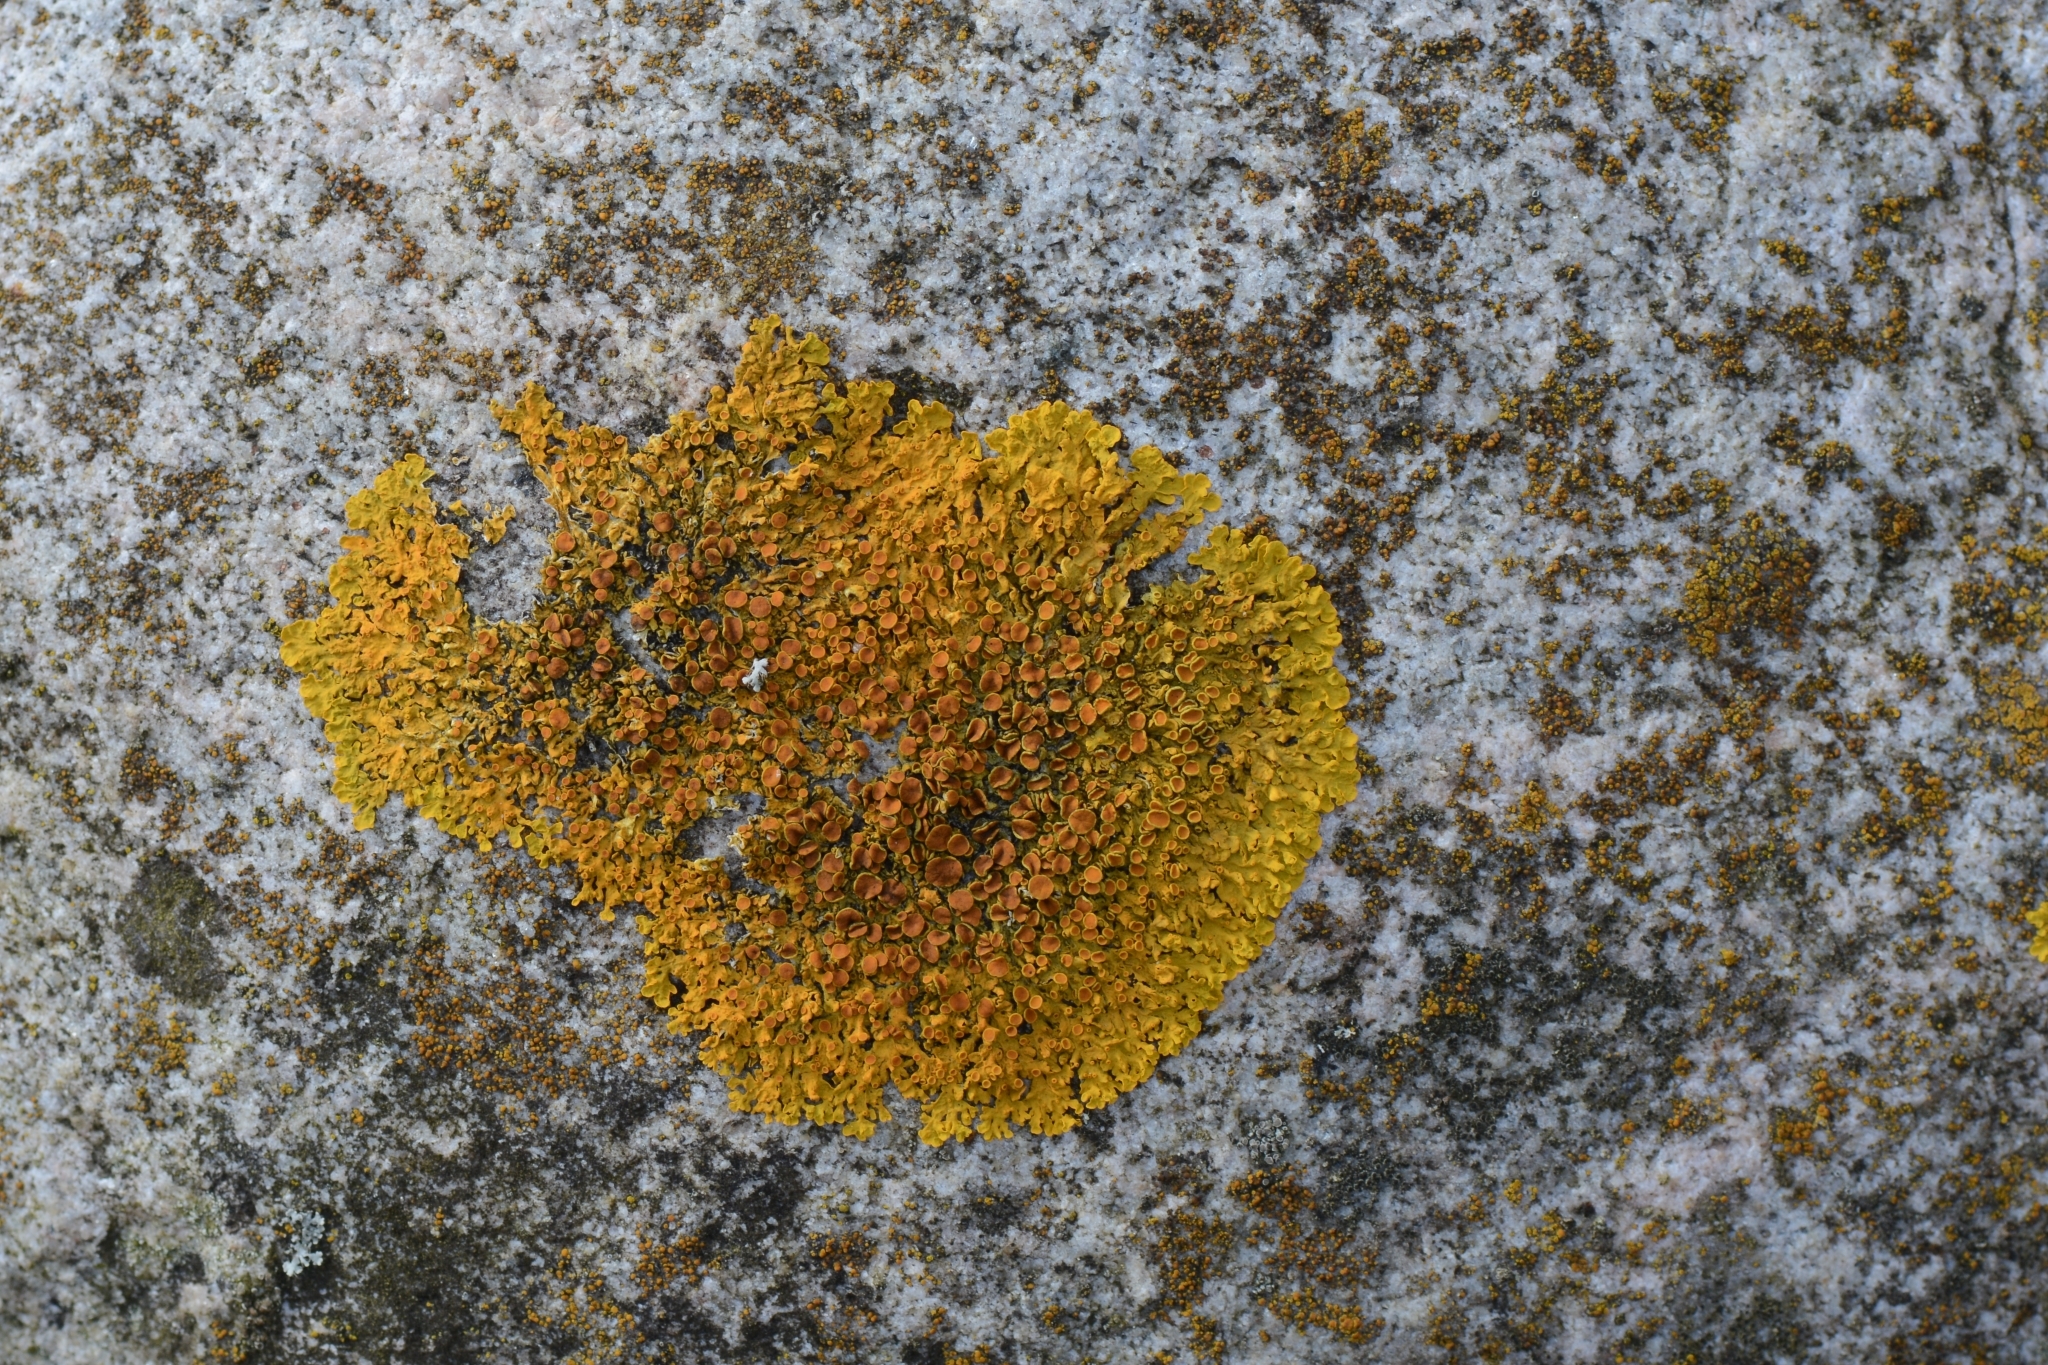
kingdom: Fungi
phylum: Ascomycota
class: Lecanoromycetes
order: Teloschistales
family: Teloschistaceae
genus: Xanthoria
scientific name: Xanthoria parietina
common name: Common orange lichen
